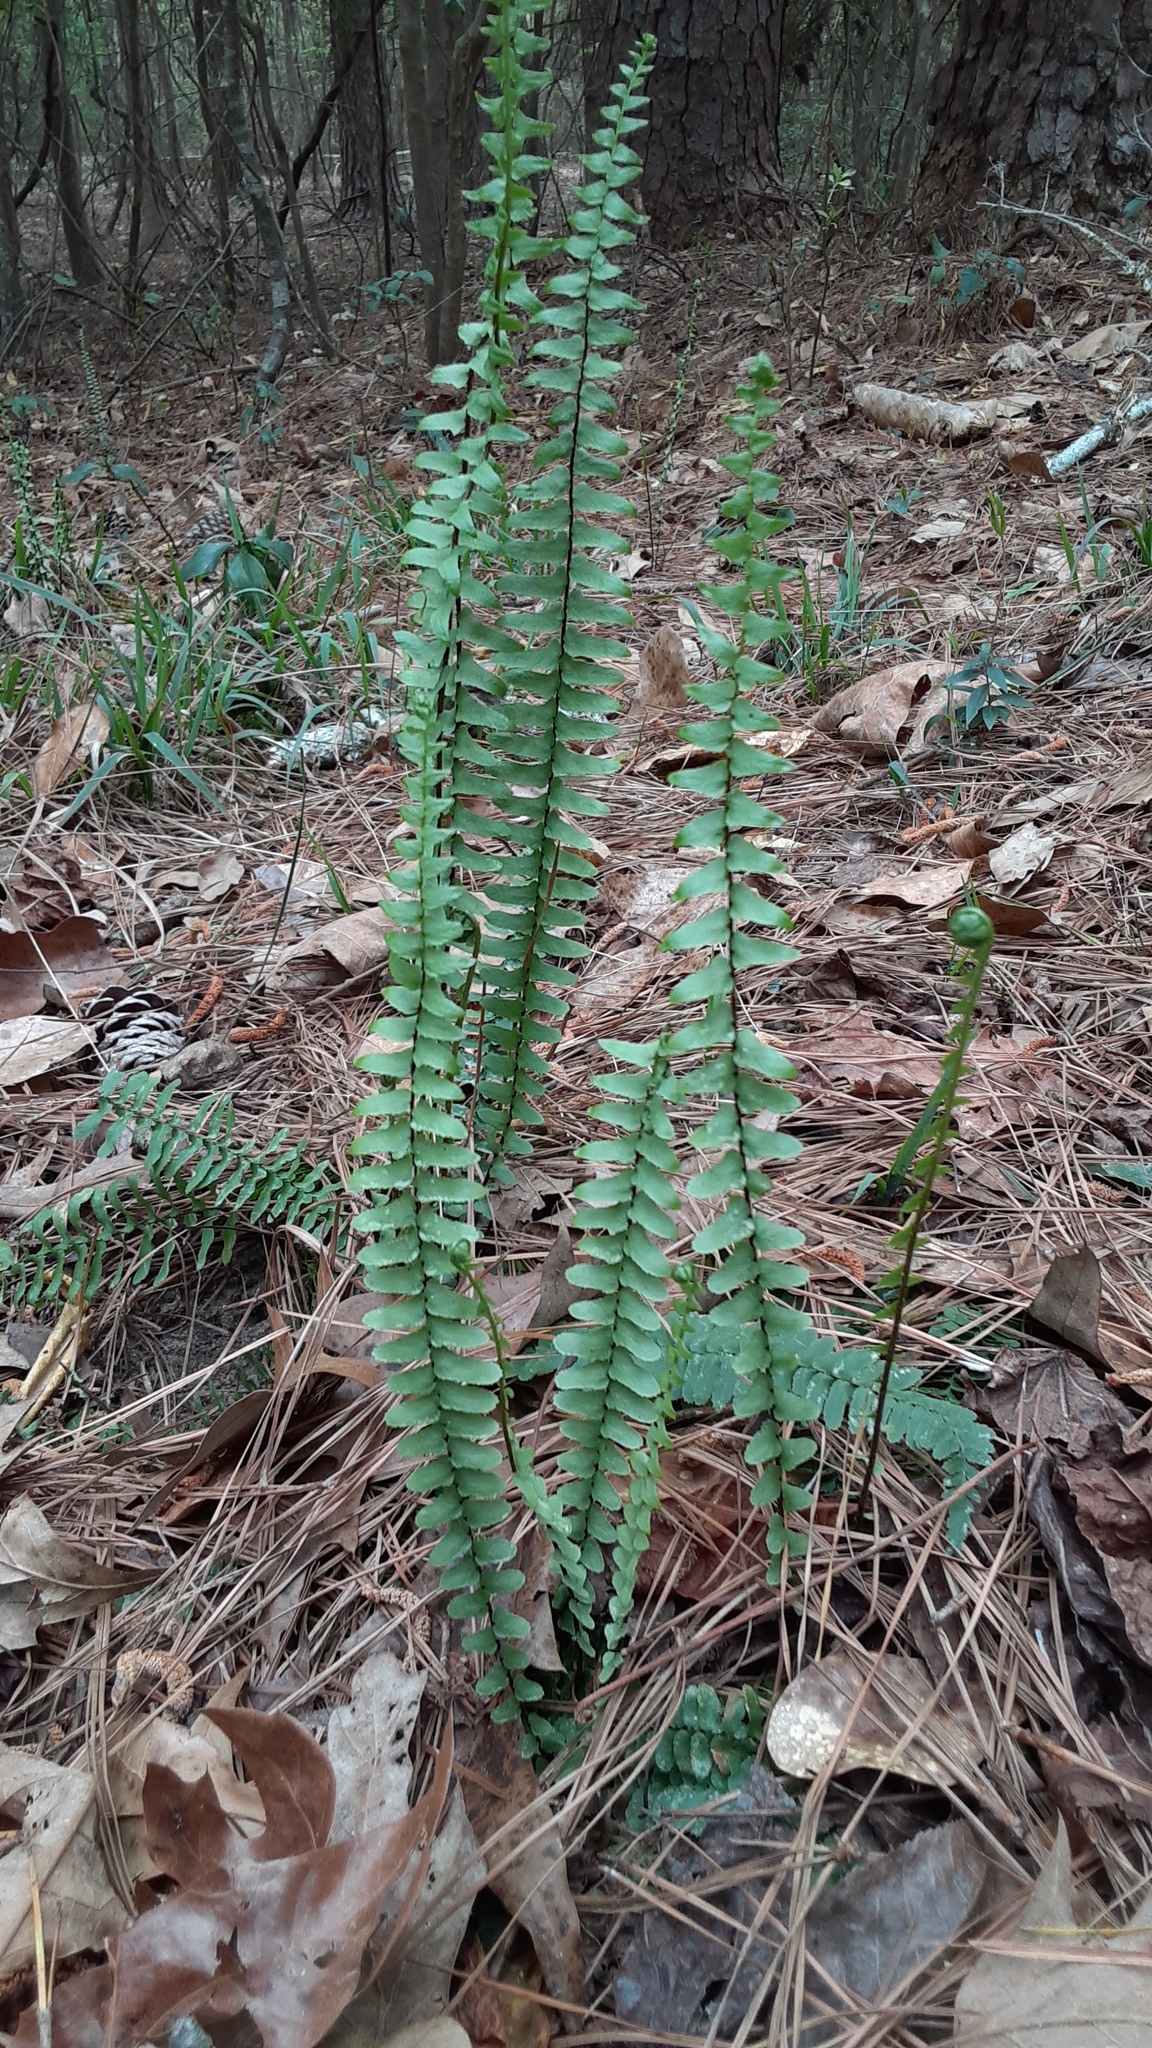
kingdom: Plantae
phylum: Tracheophyta
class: Polypodiopsida
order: Polypodiales
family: Aspleniaceae
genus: Asplenium
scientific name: Asplenium platyneuron
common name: Ebony spleenwort
